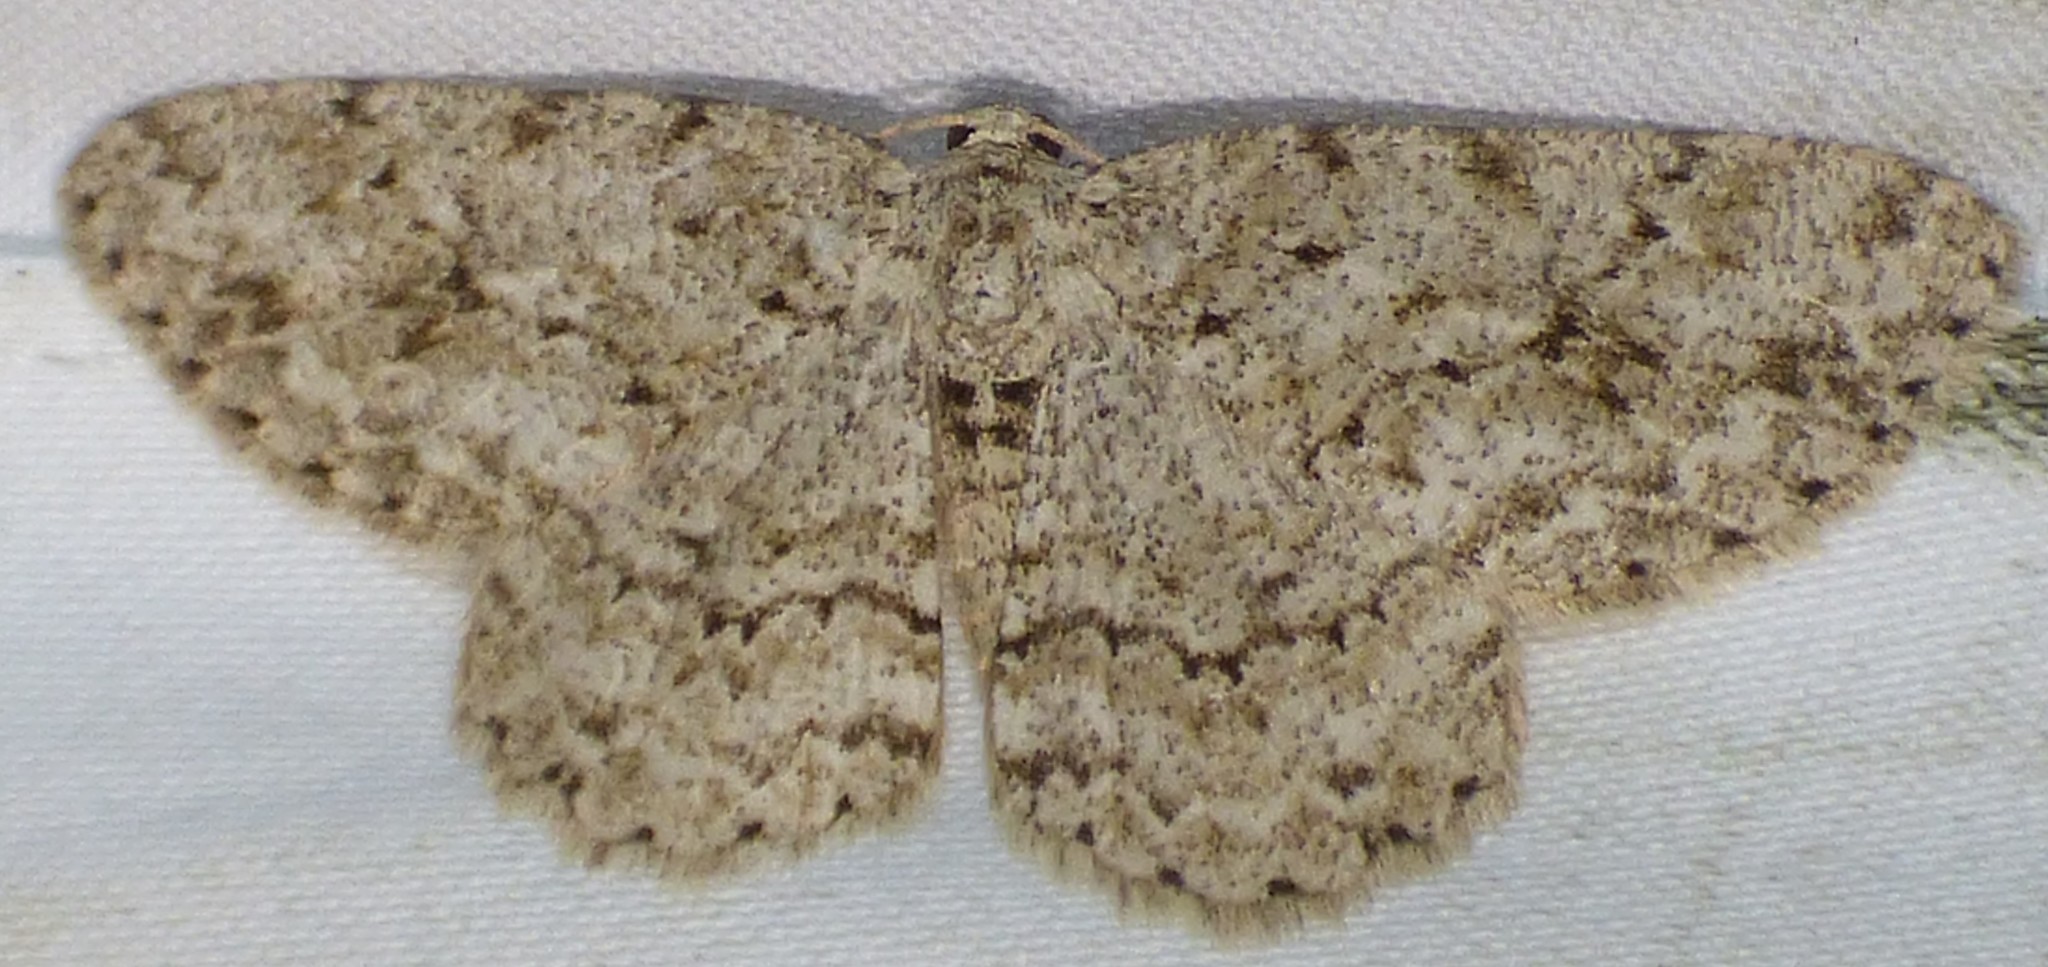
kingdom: Animalia
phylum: Arthropoda
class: Insecta
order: Lepidoptera
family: Geometridae
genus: Ectropis
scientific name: Ectropis crepuscularia
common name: Engrailed
